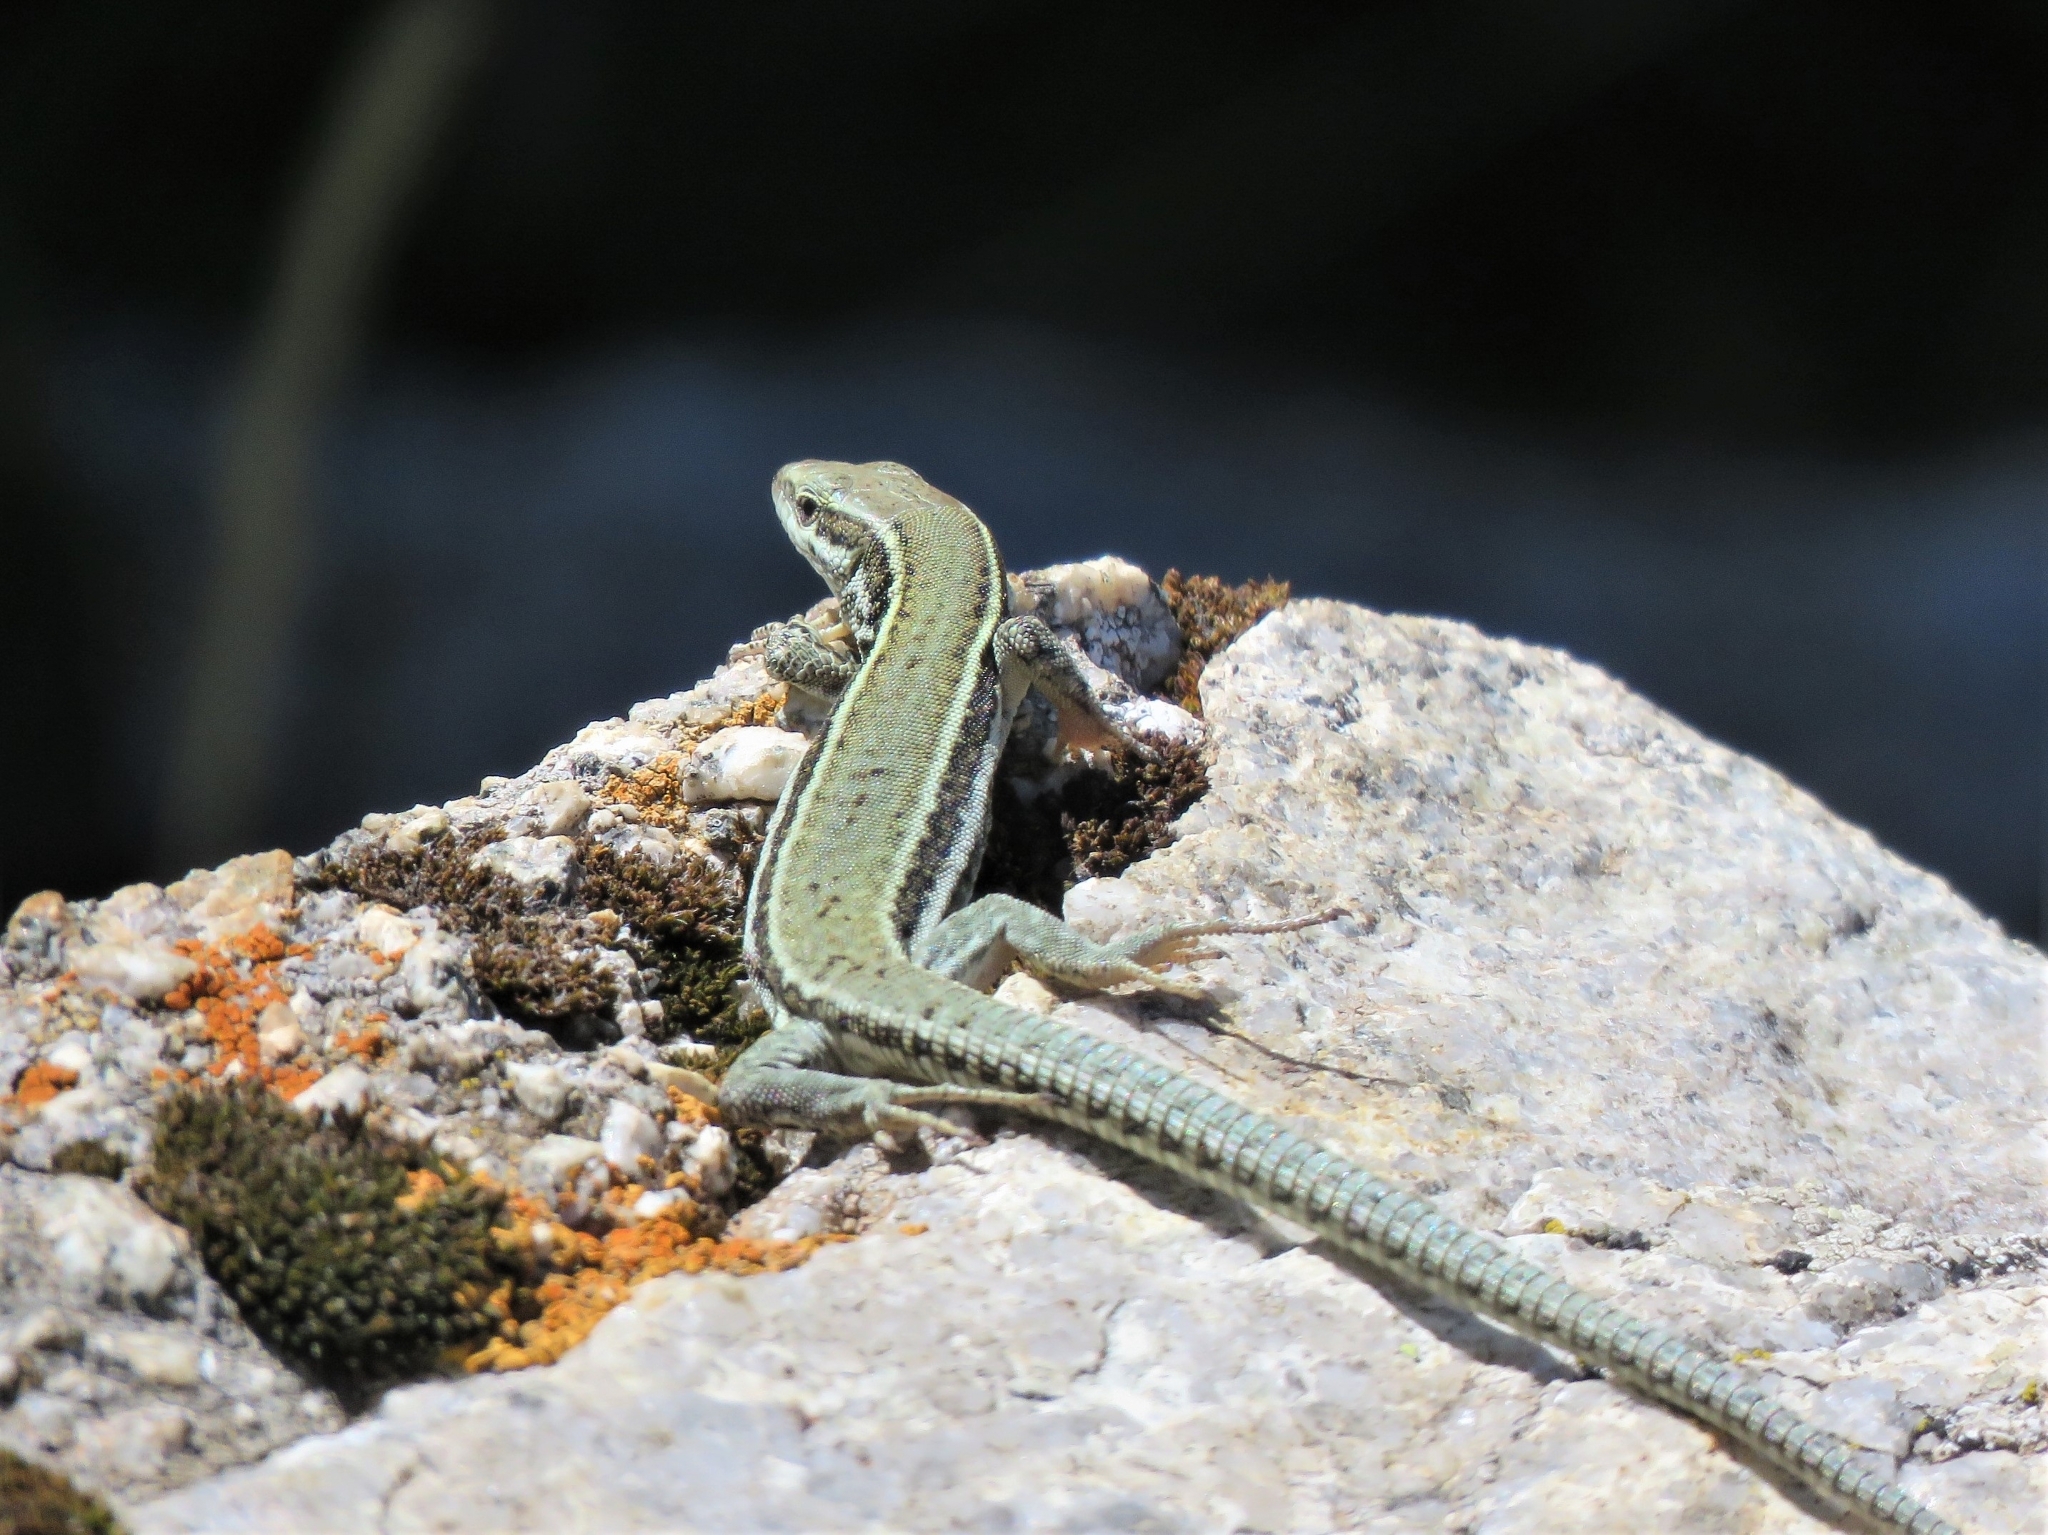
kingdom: Animalia
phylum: Chordata
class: Squamata
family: Lacertidae
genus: Podarcis
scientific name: Podarcis muralis
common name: Common wall lizard
